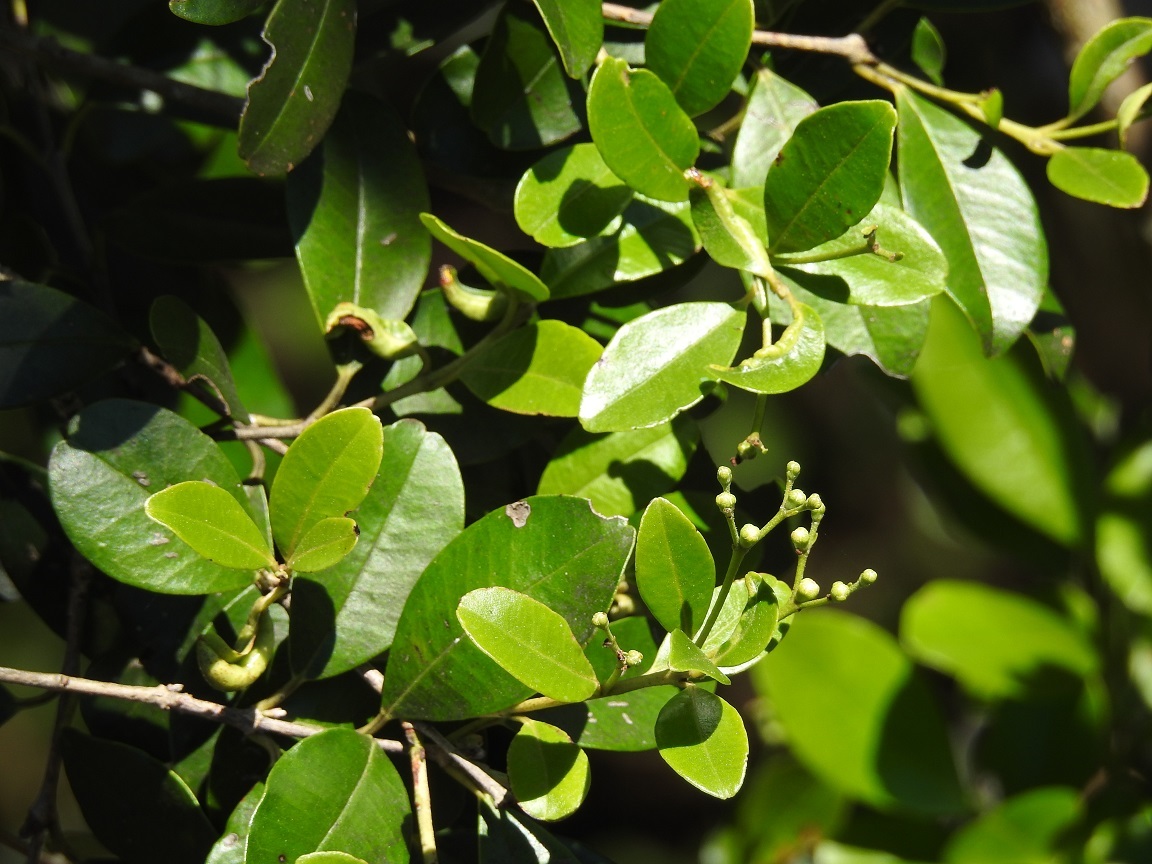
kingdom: Plantae
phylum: Tracheophyta
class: Magnoliopsida
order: Myrtales
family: Myrtaceae
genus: Eugenia
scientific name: Eugenia acapulcensis
